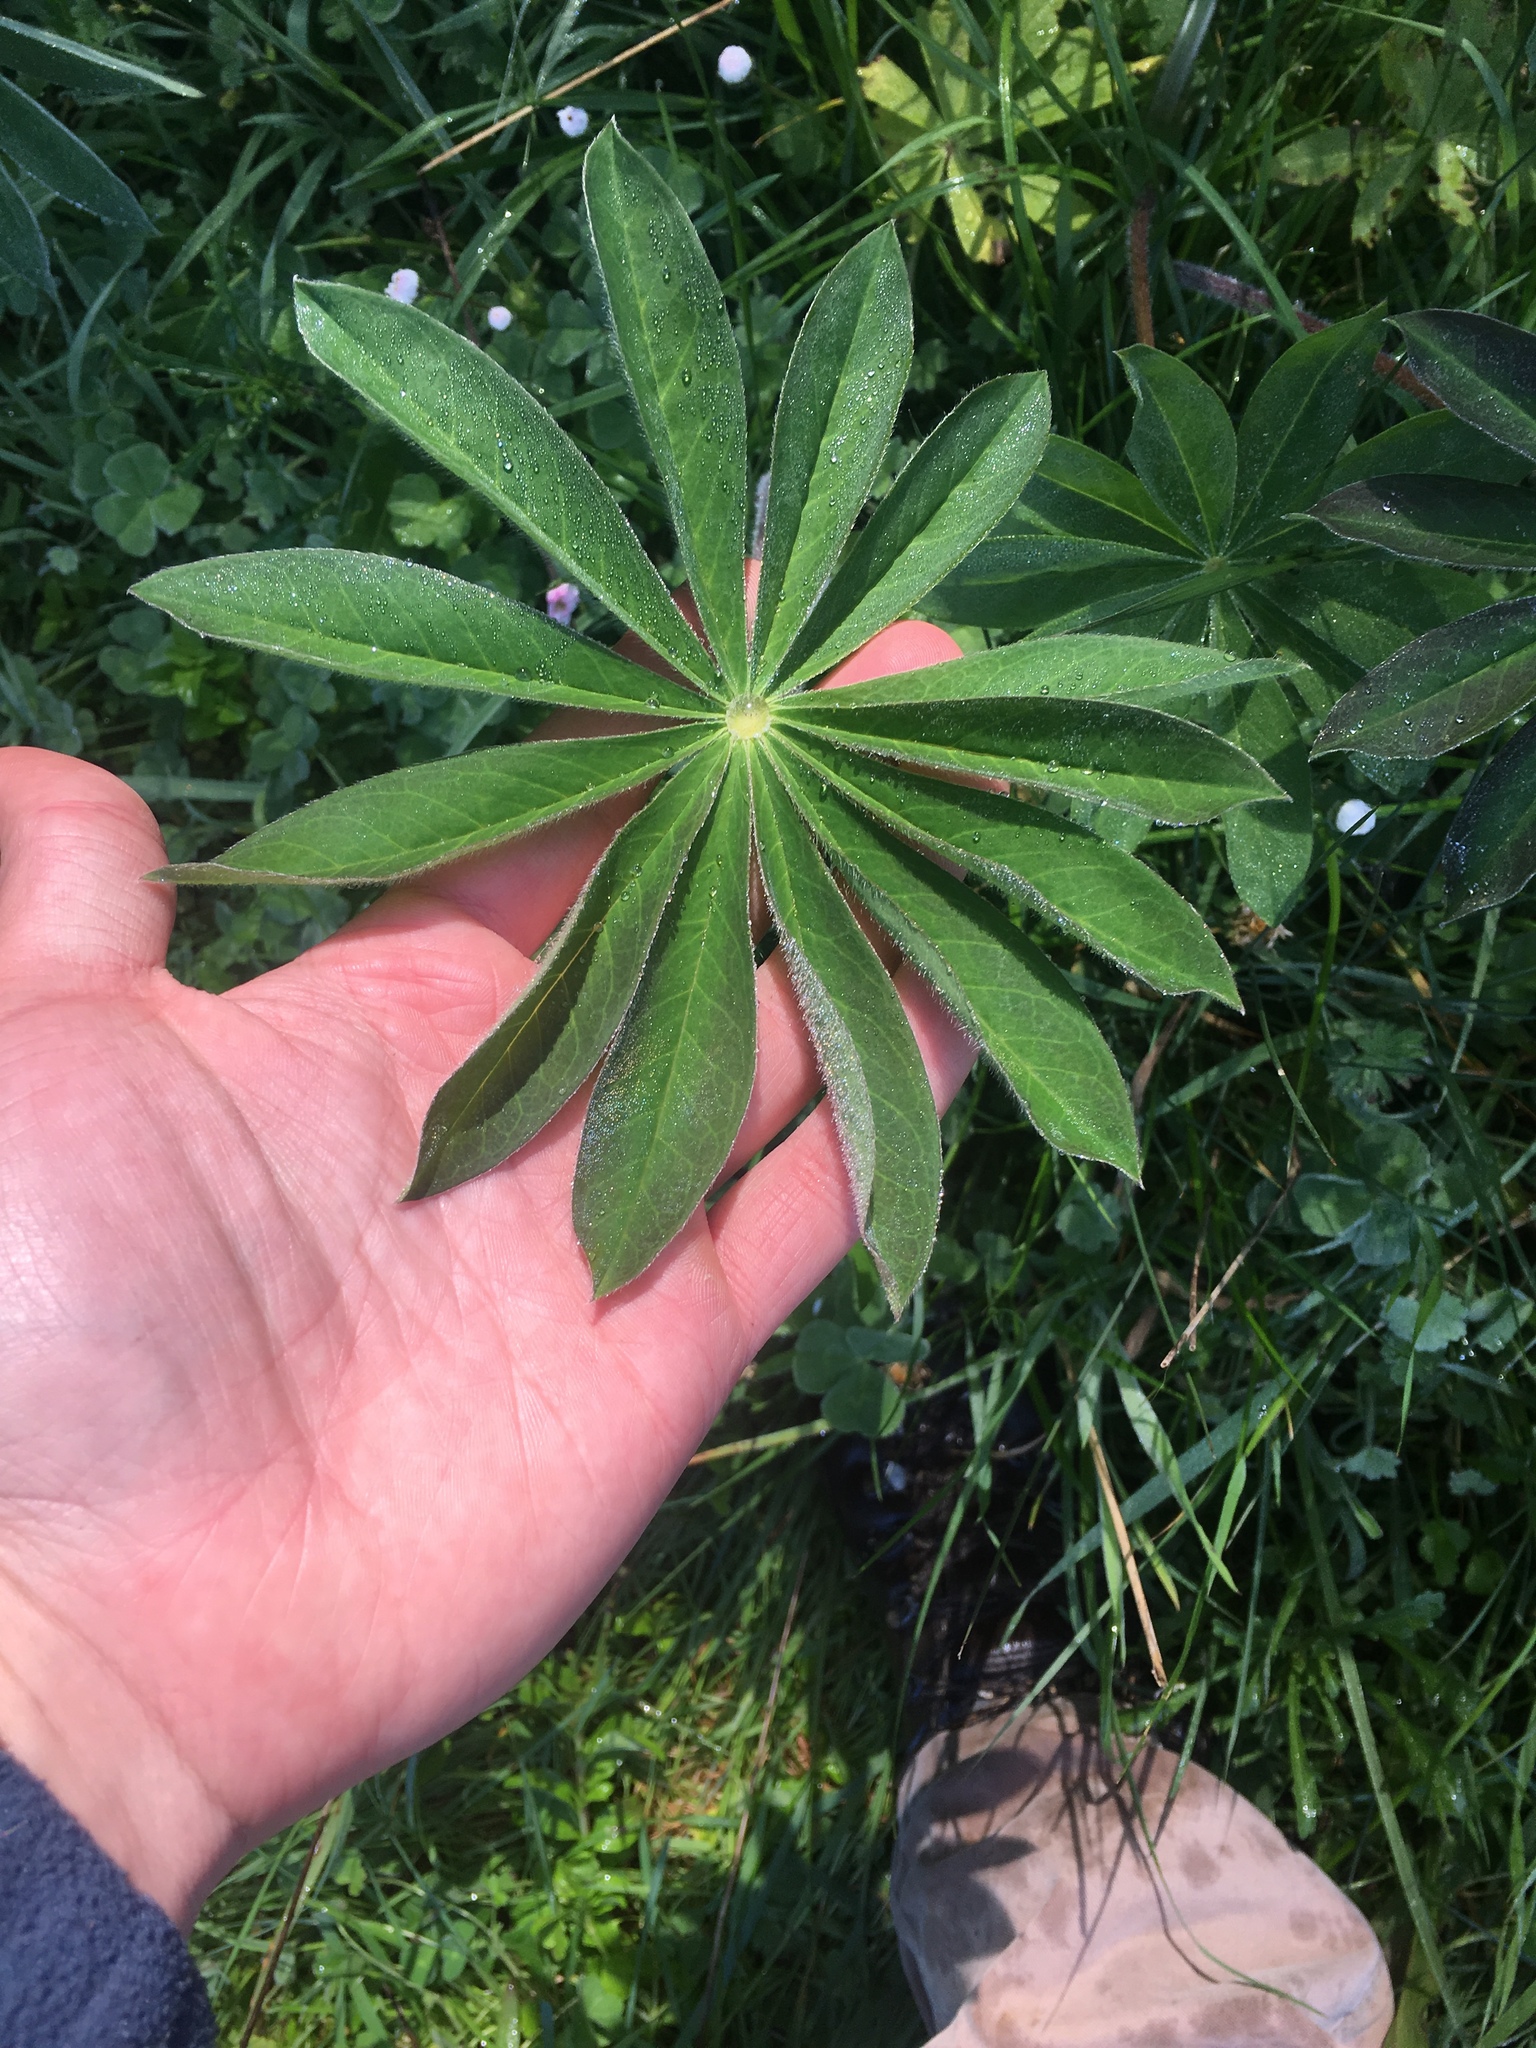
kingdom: Plantae
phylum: Tracheophyta
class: Magnoliopsida
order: Fabales
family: Fabaceae
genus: Lupinus
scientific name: Lupinus polyphyllus
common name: Garden lupin
